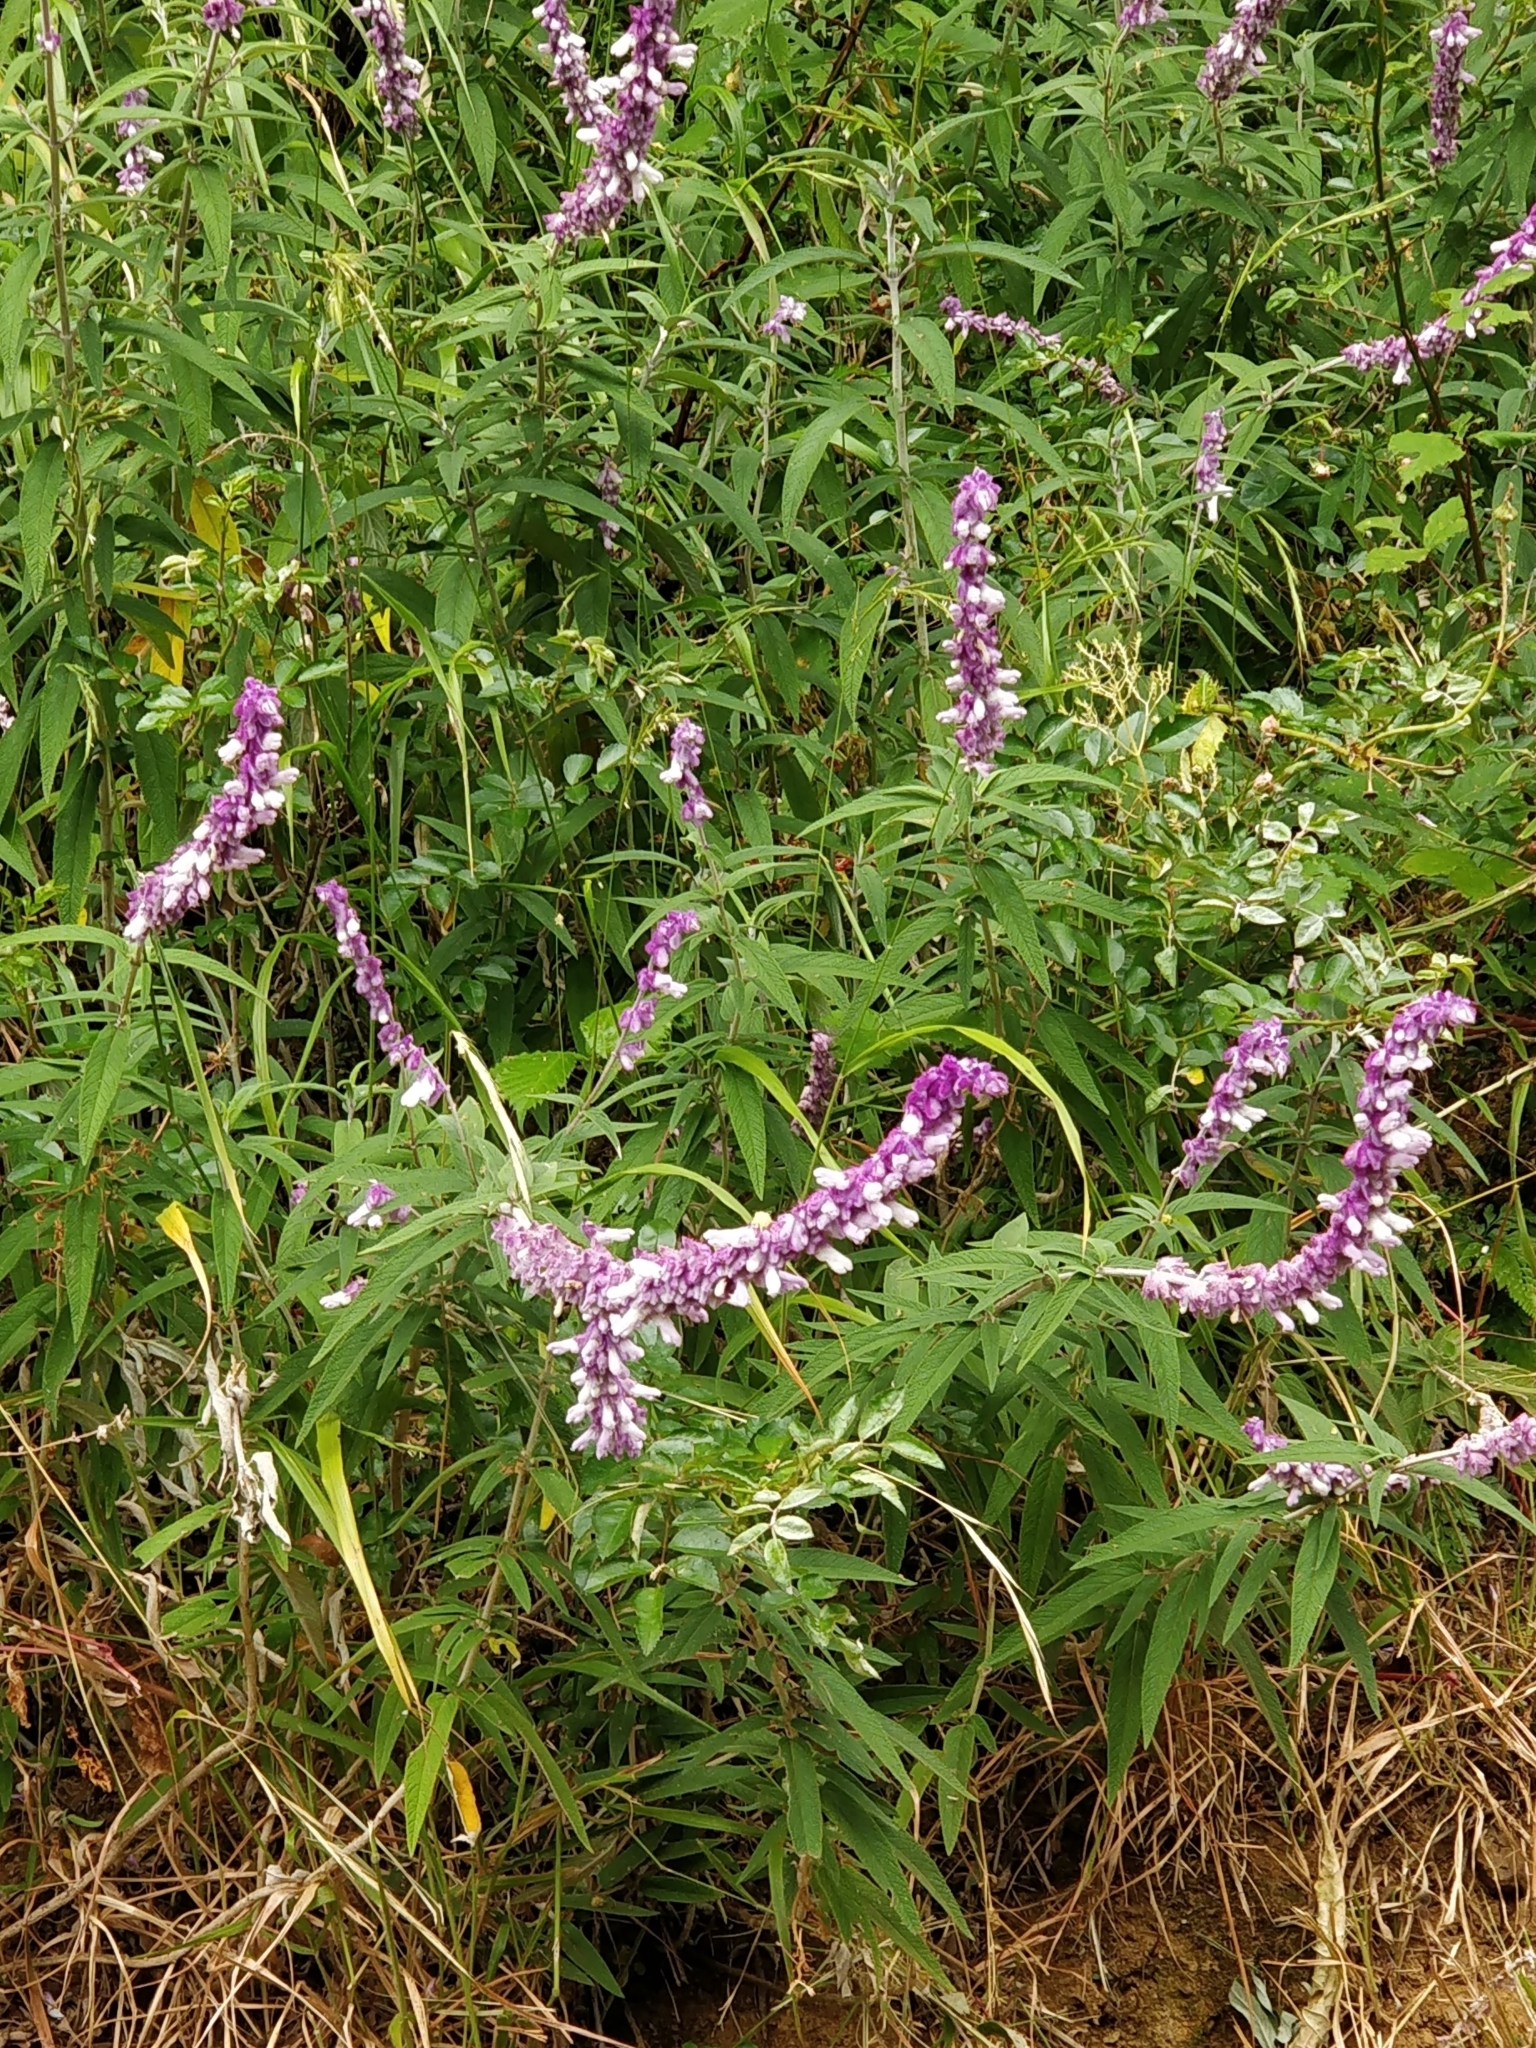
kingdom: Plantae
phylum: Tracheophyta
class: Magnoliopsida
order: Lamiales
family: Lamiaceae
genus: Salvia
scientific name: Salvia leucantha
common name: Mexican bush sage
